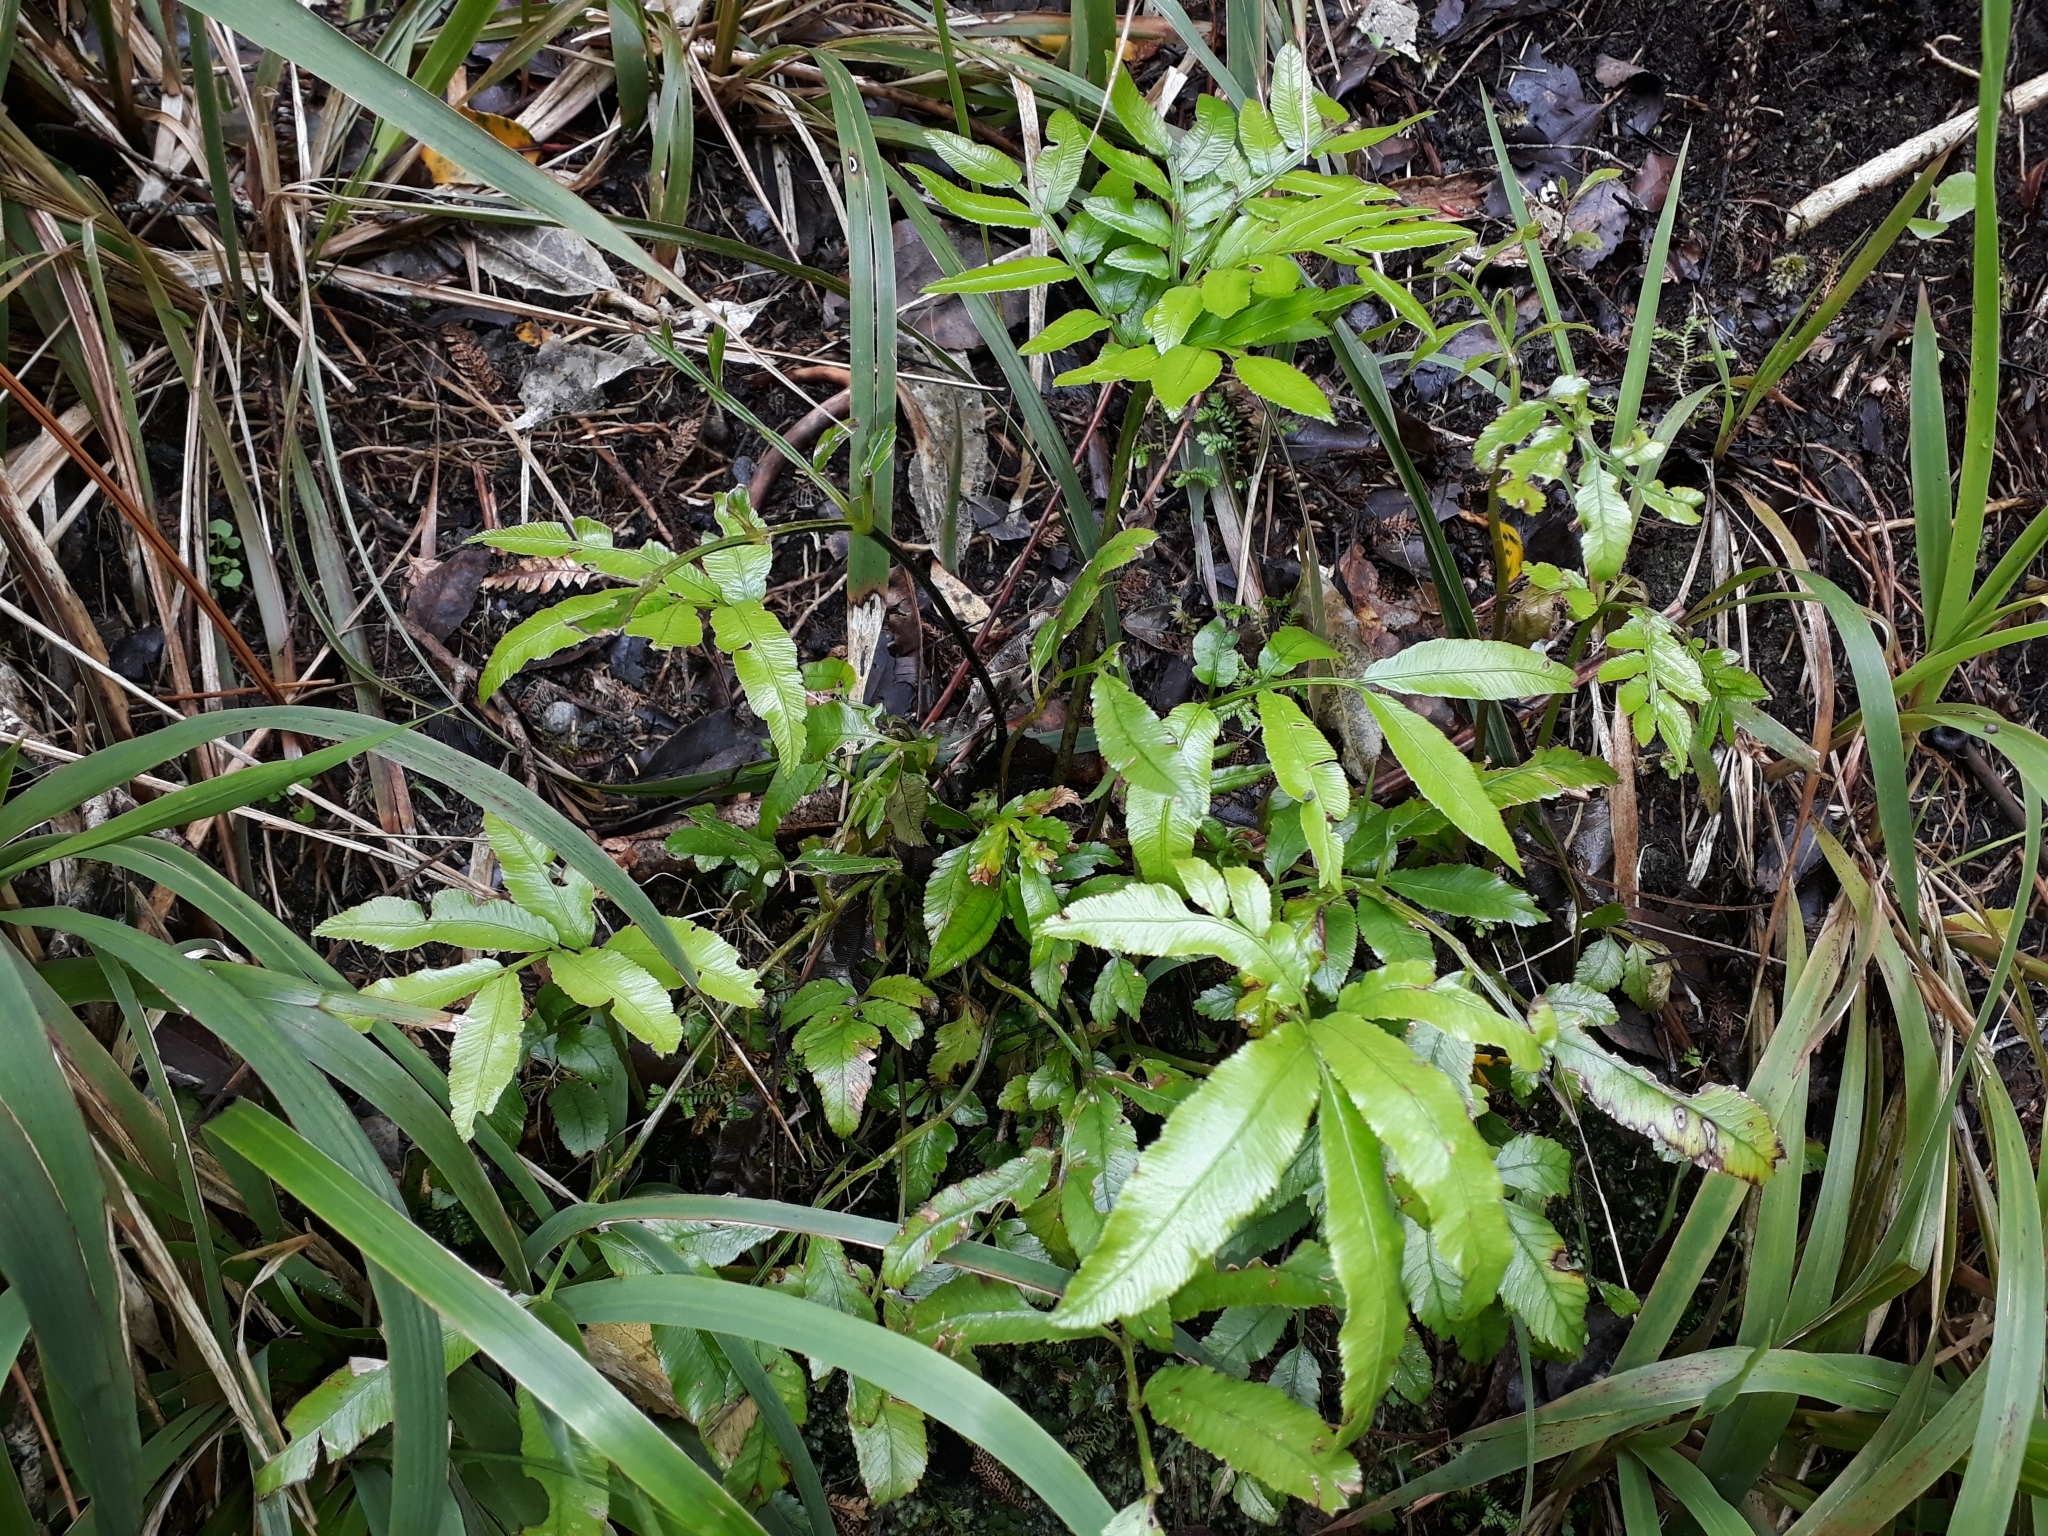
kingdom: Plantae
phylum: Tracheophyta
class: Polypodiopsida
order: Marattiales
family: Marattiaceae
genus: Ptisana
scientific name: Ptisana salicina
